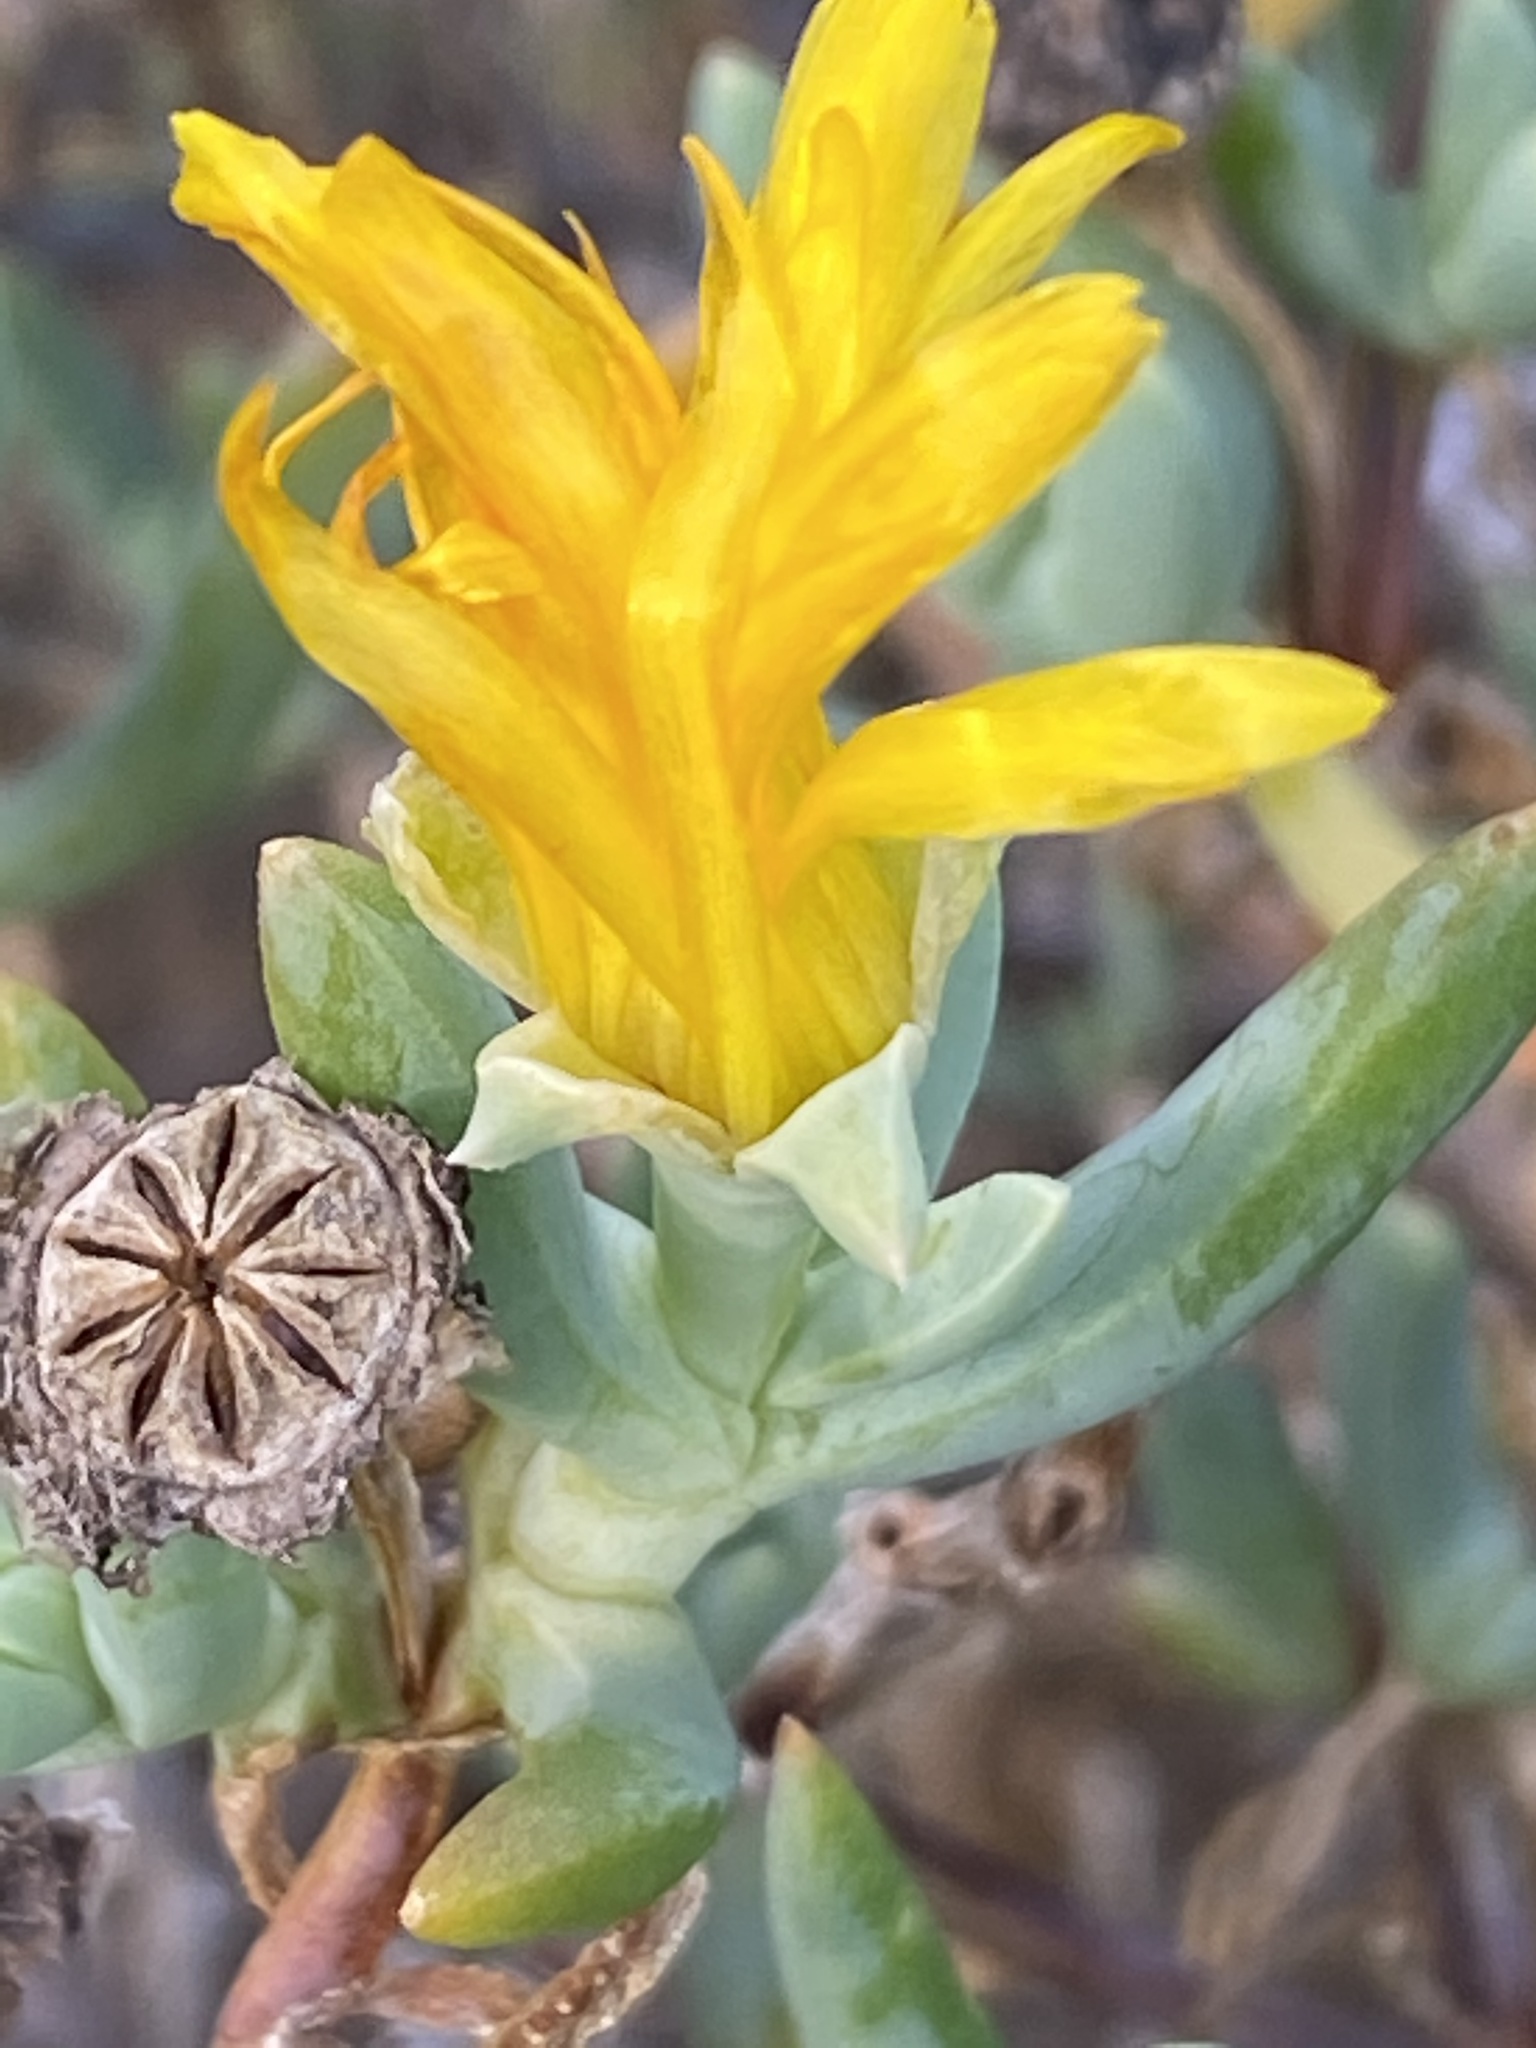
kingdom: Plantae
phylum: Tracheophyta
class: Magnoliopsida
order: Caryophyllales
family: Aizoaceae
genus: Malephora
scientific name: Malephora lutea
